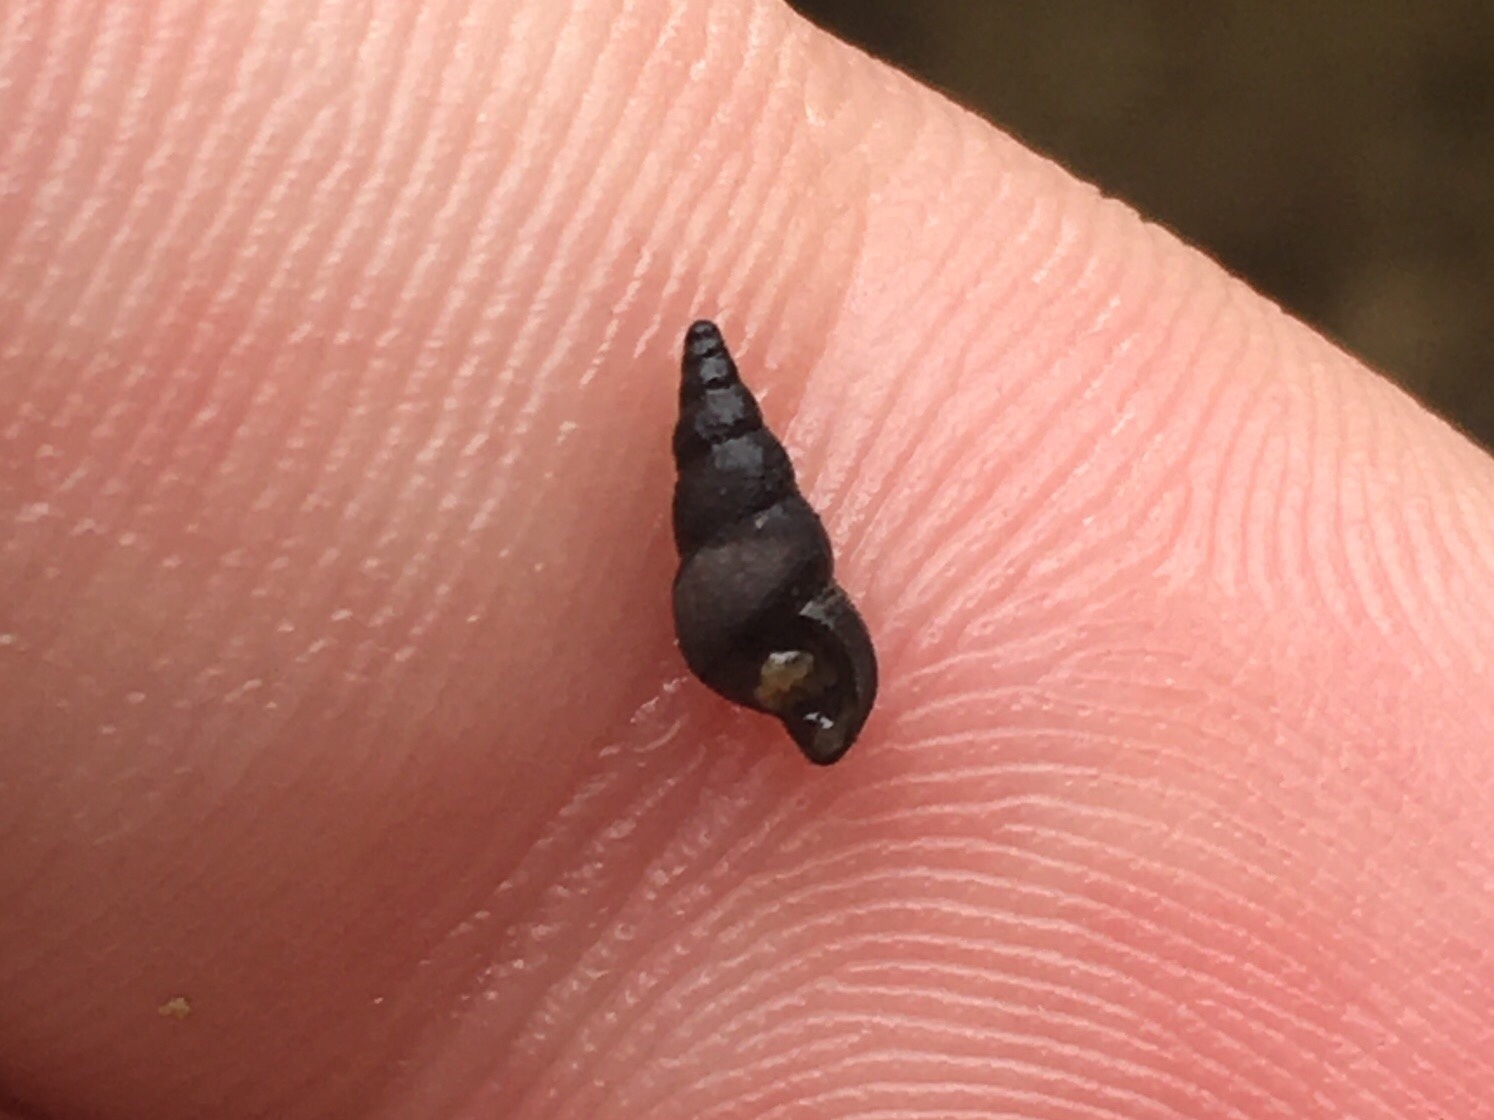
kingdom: Animalia
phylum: Mollusca
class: Gastropoda
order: Littorinimorpha
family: Cochliopidae
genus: Heleobia
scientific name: Heleobia parchappii
